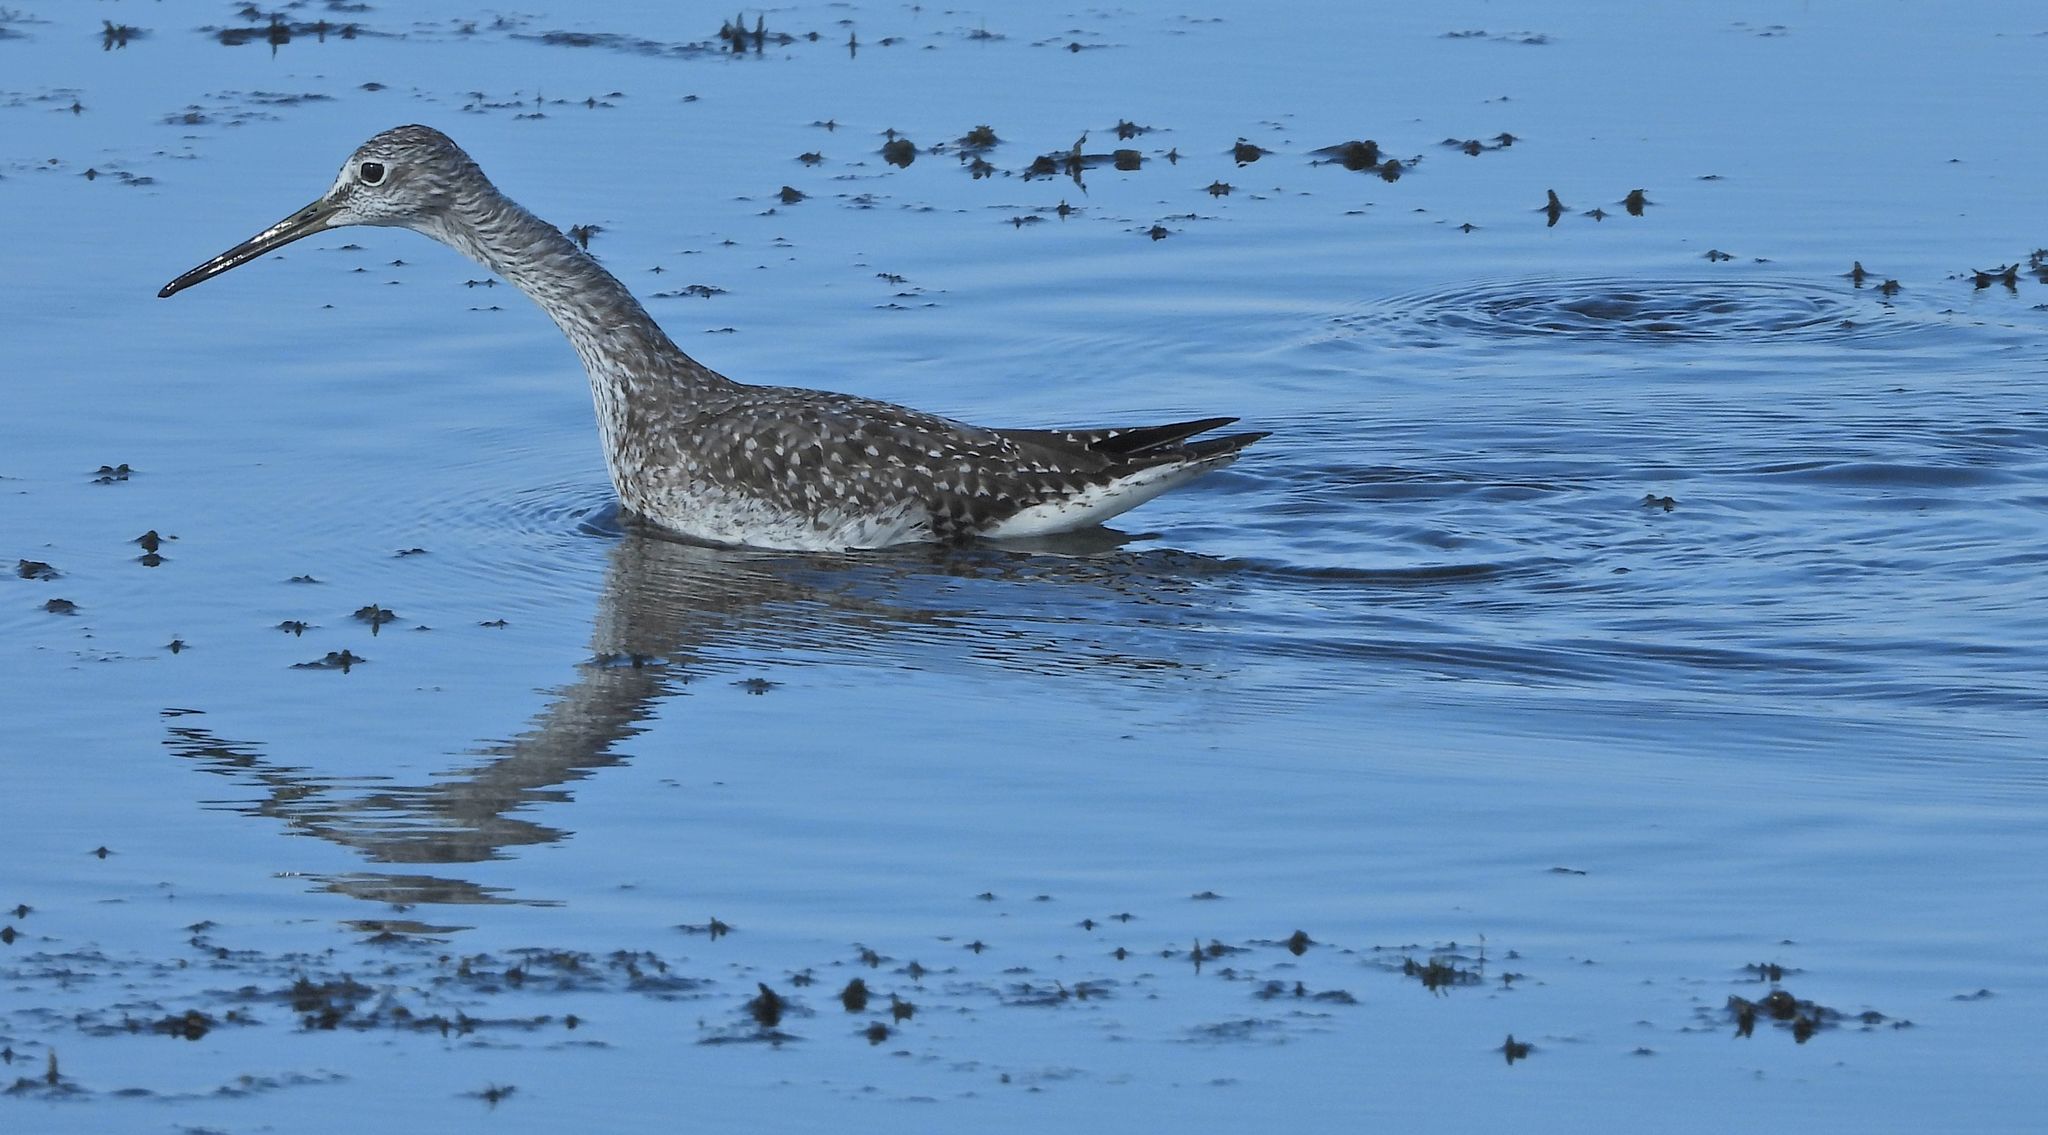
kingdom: Animalia
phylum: Chordata
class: Aves
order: Charadriiformes
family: Scolopacidae
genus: Tringa
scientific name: Tringa melanoleuca
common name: Greater yellowlegs
